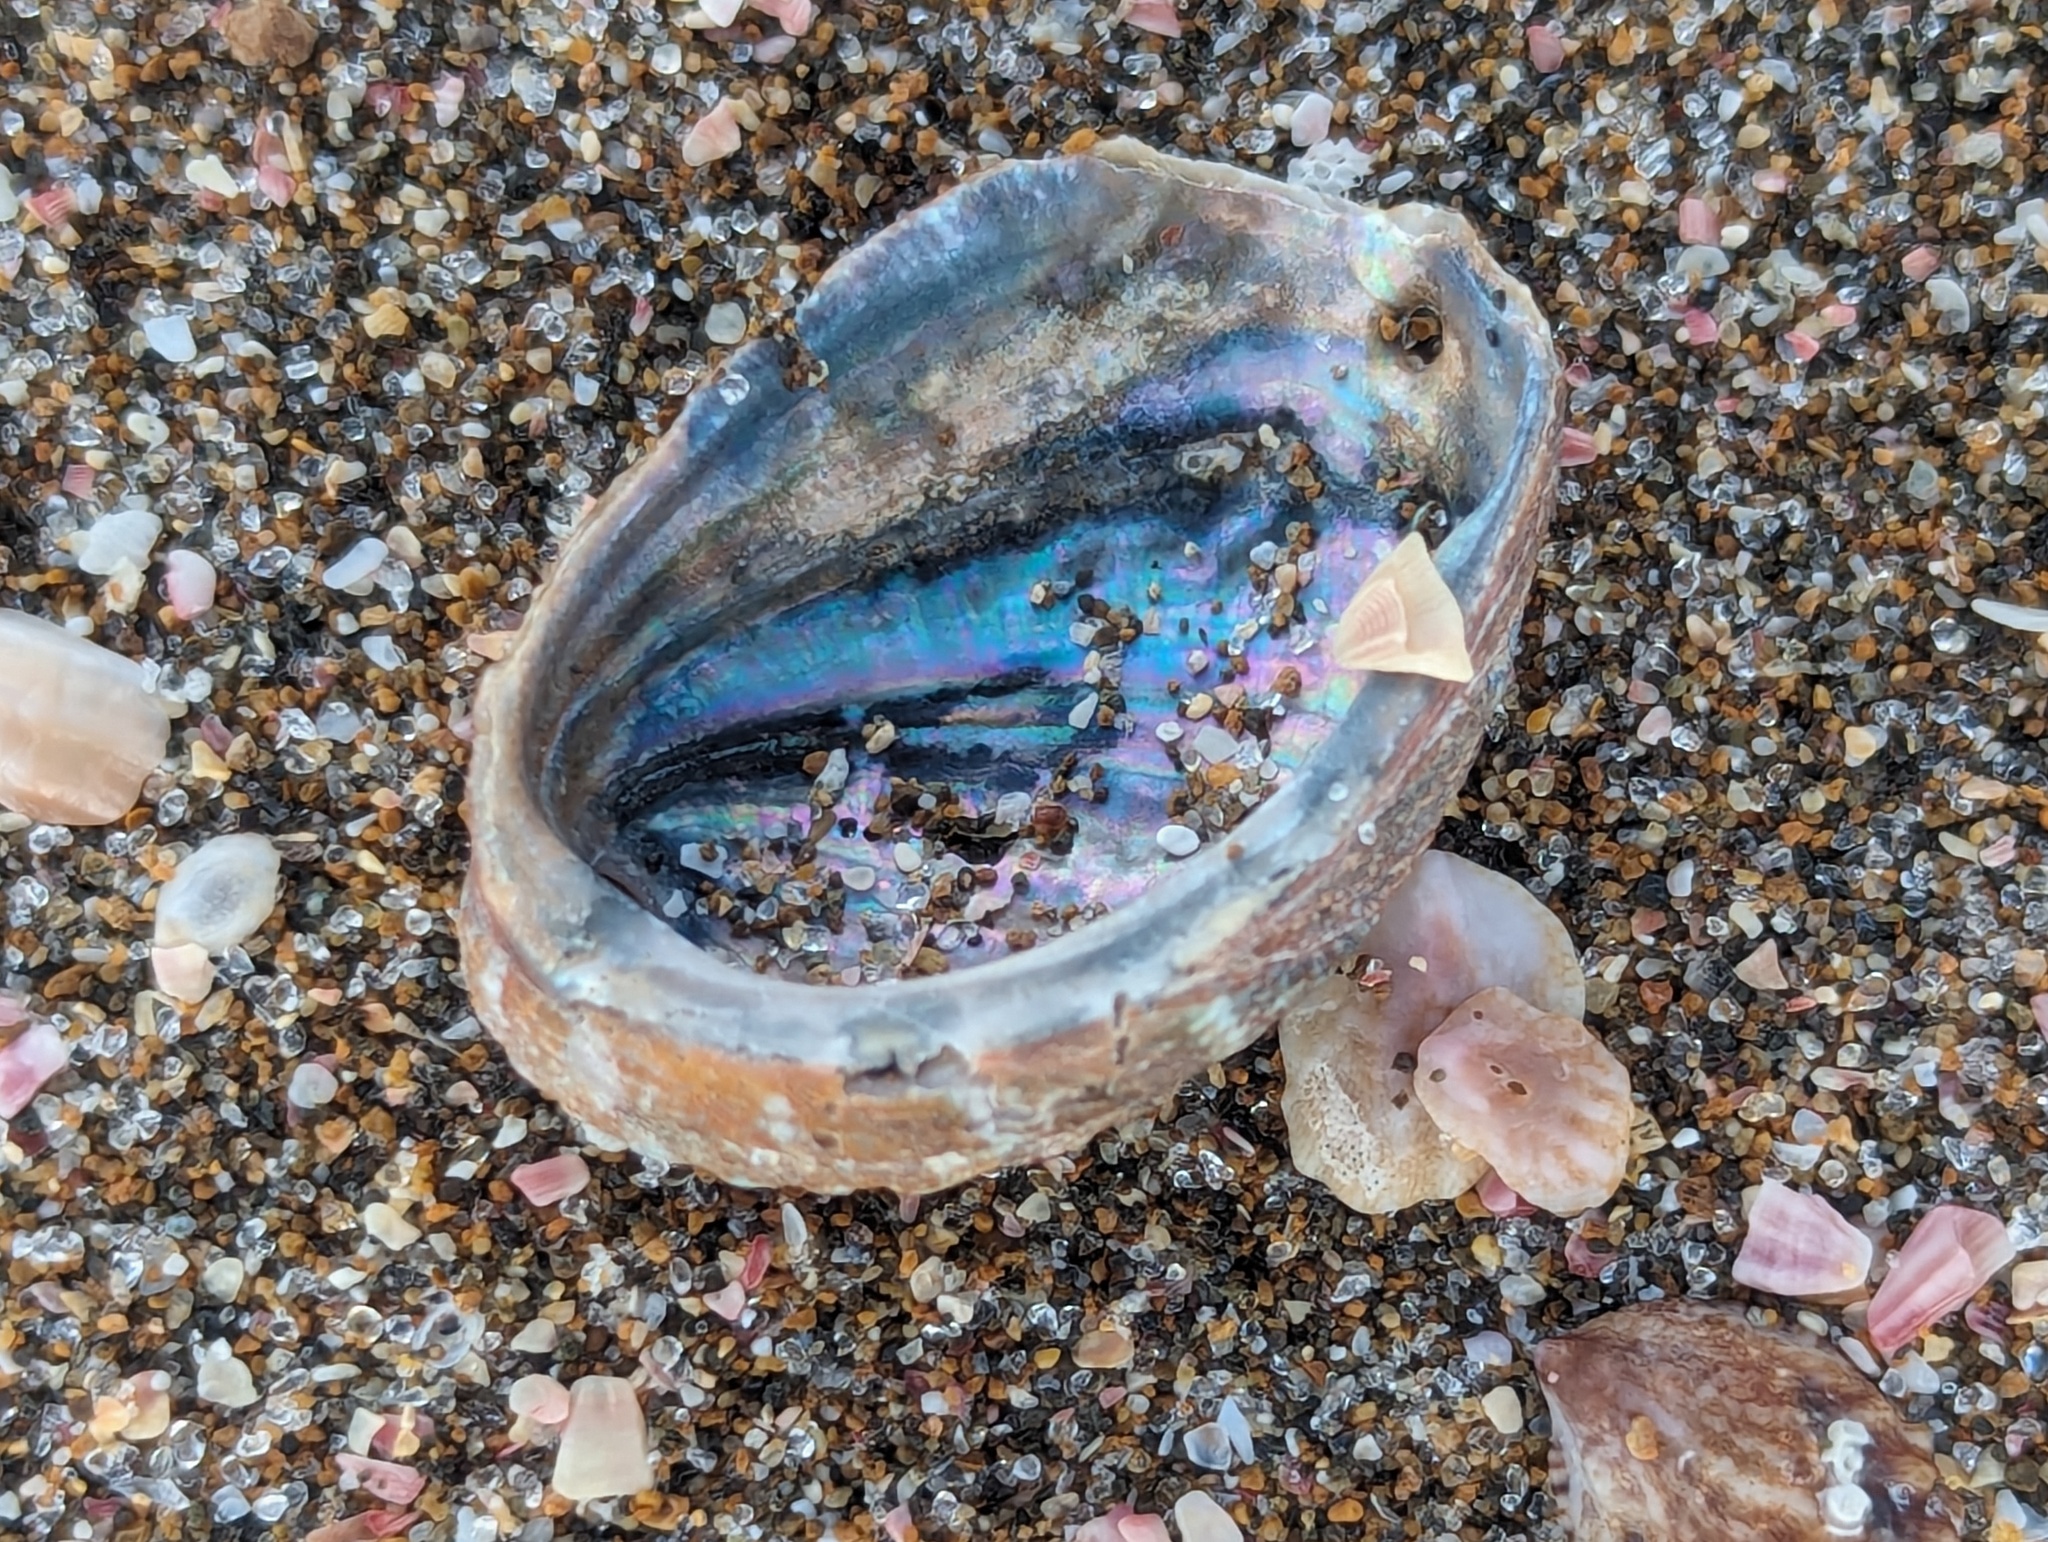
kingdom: Animalia
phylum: Mollusca
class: Gastropoda
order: Lepetellida
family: Haliotidae
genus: Haliotis
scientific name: Haliotis virginea
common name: Whitefoot paua
